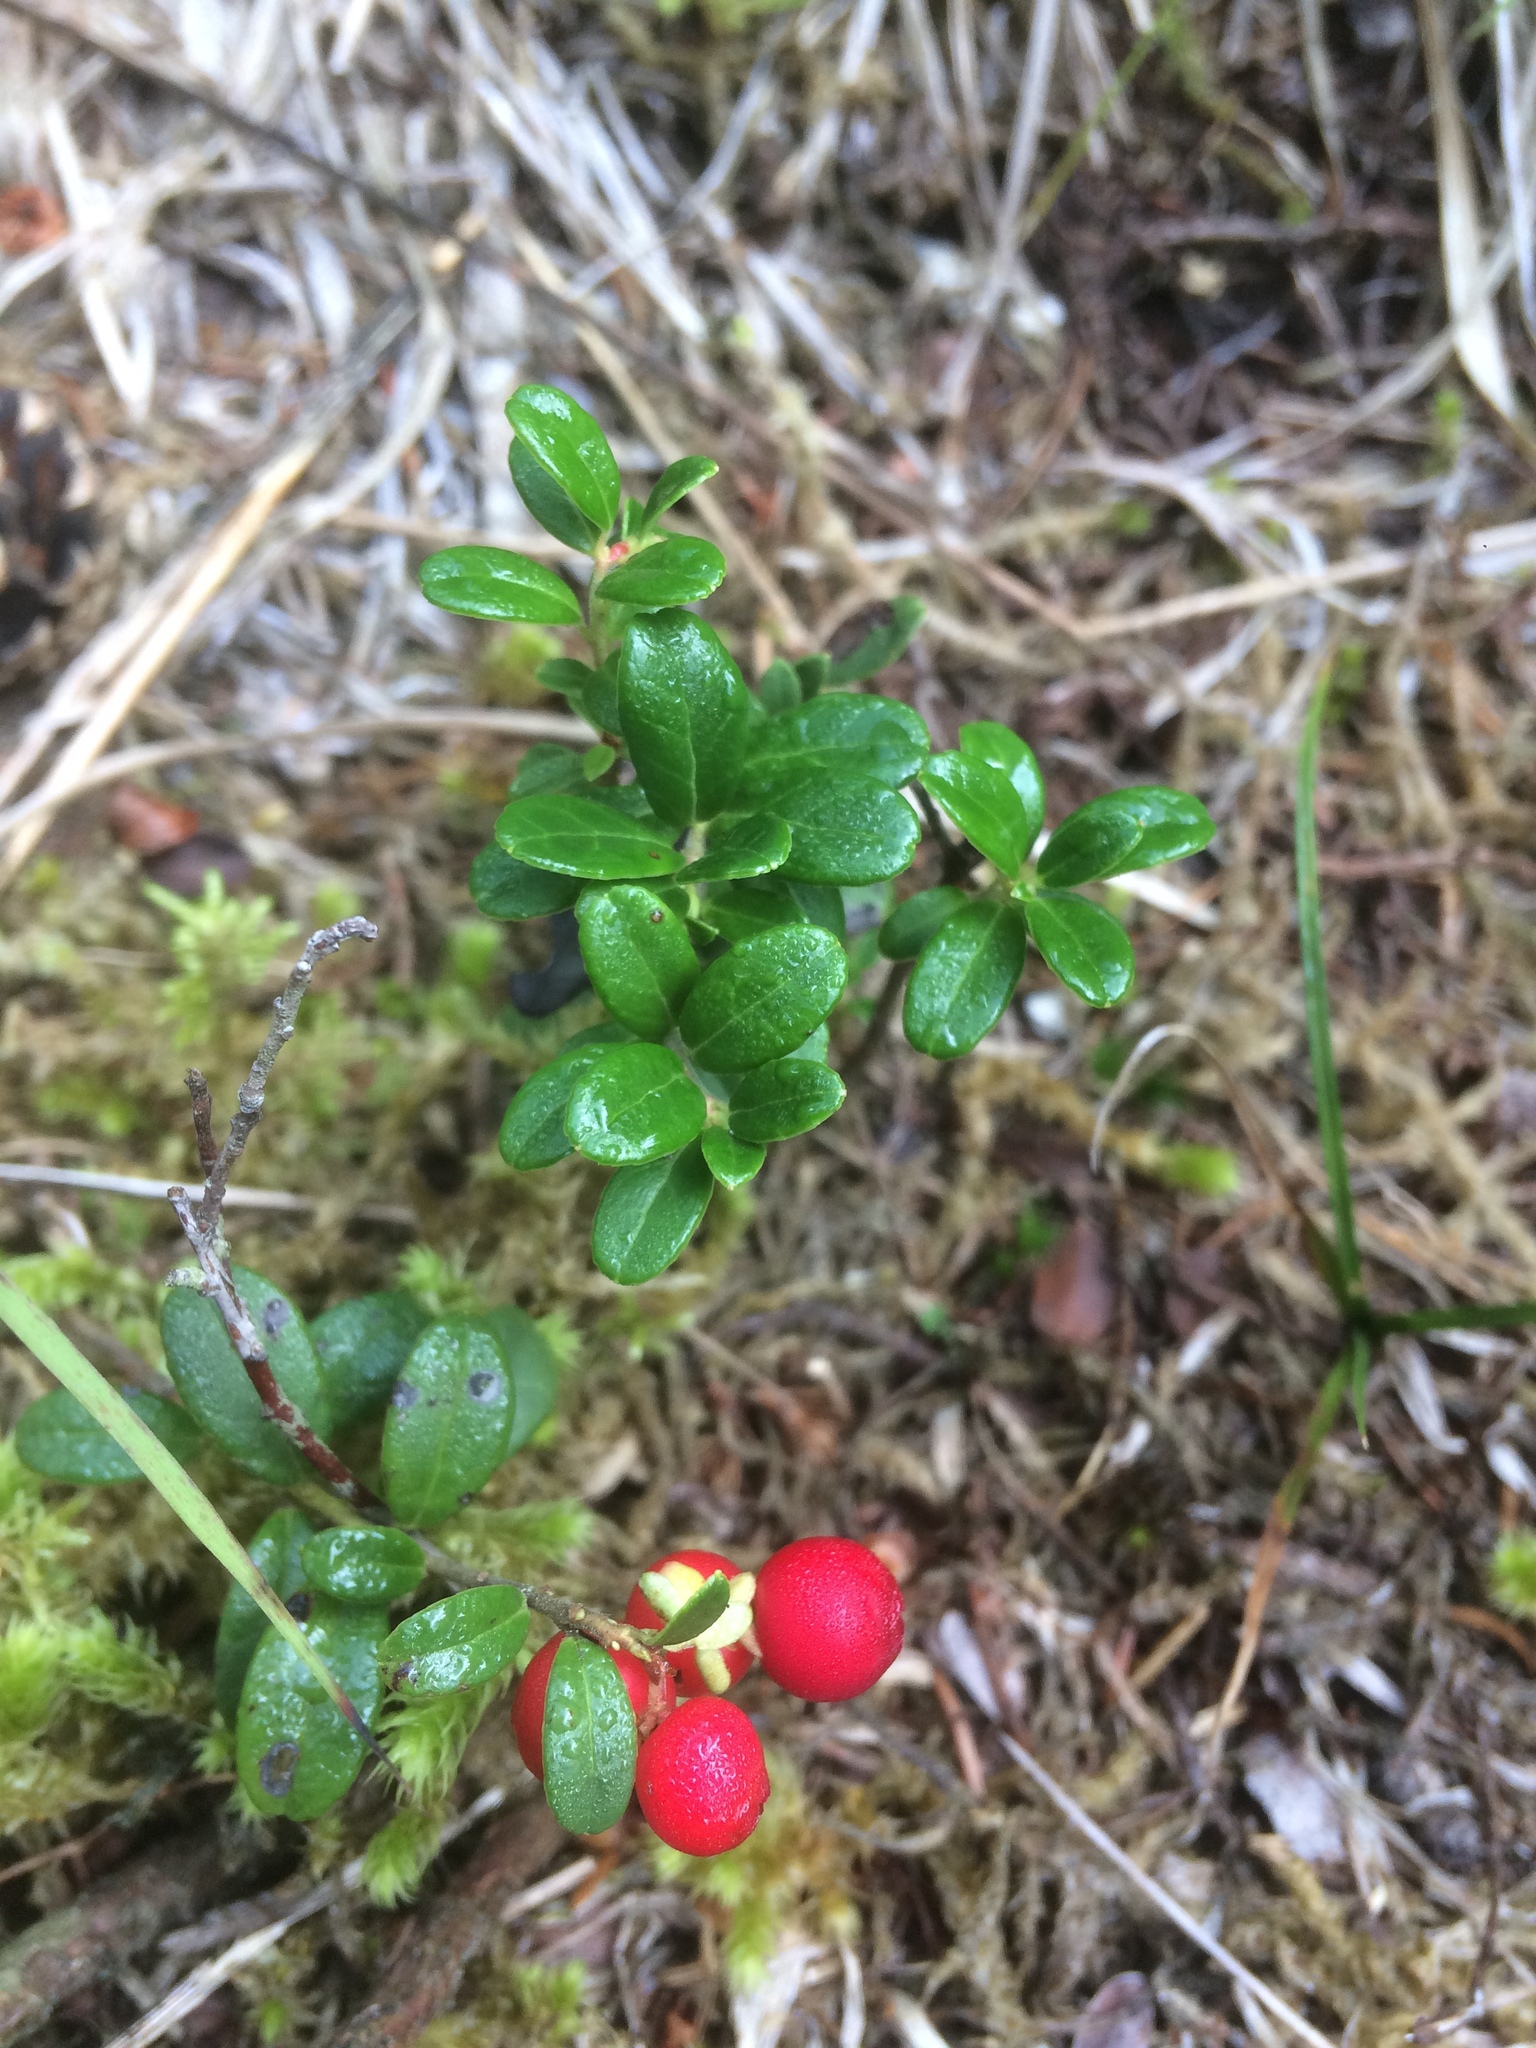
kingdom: Plantae
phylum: Tracheophyta
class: Magnoliopsida
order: Ericales
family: Ericaceae
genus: Vaccinium
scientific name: Vaccinium vitis-idaea
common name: Cowberry
